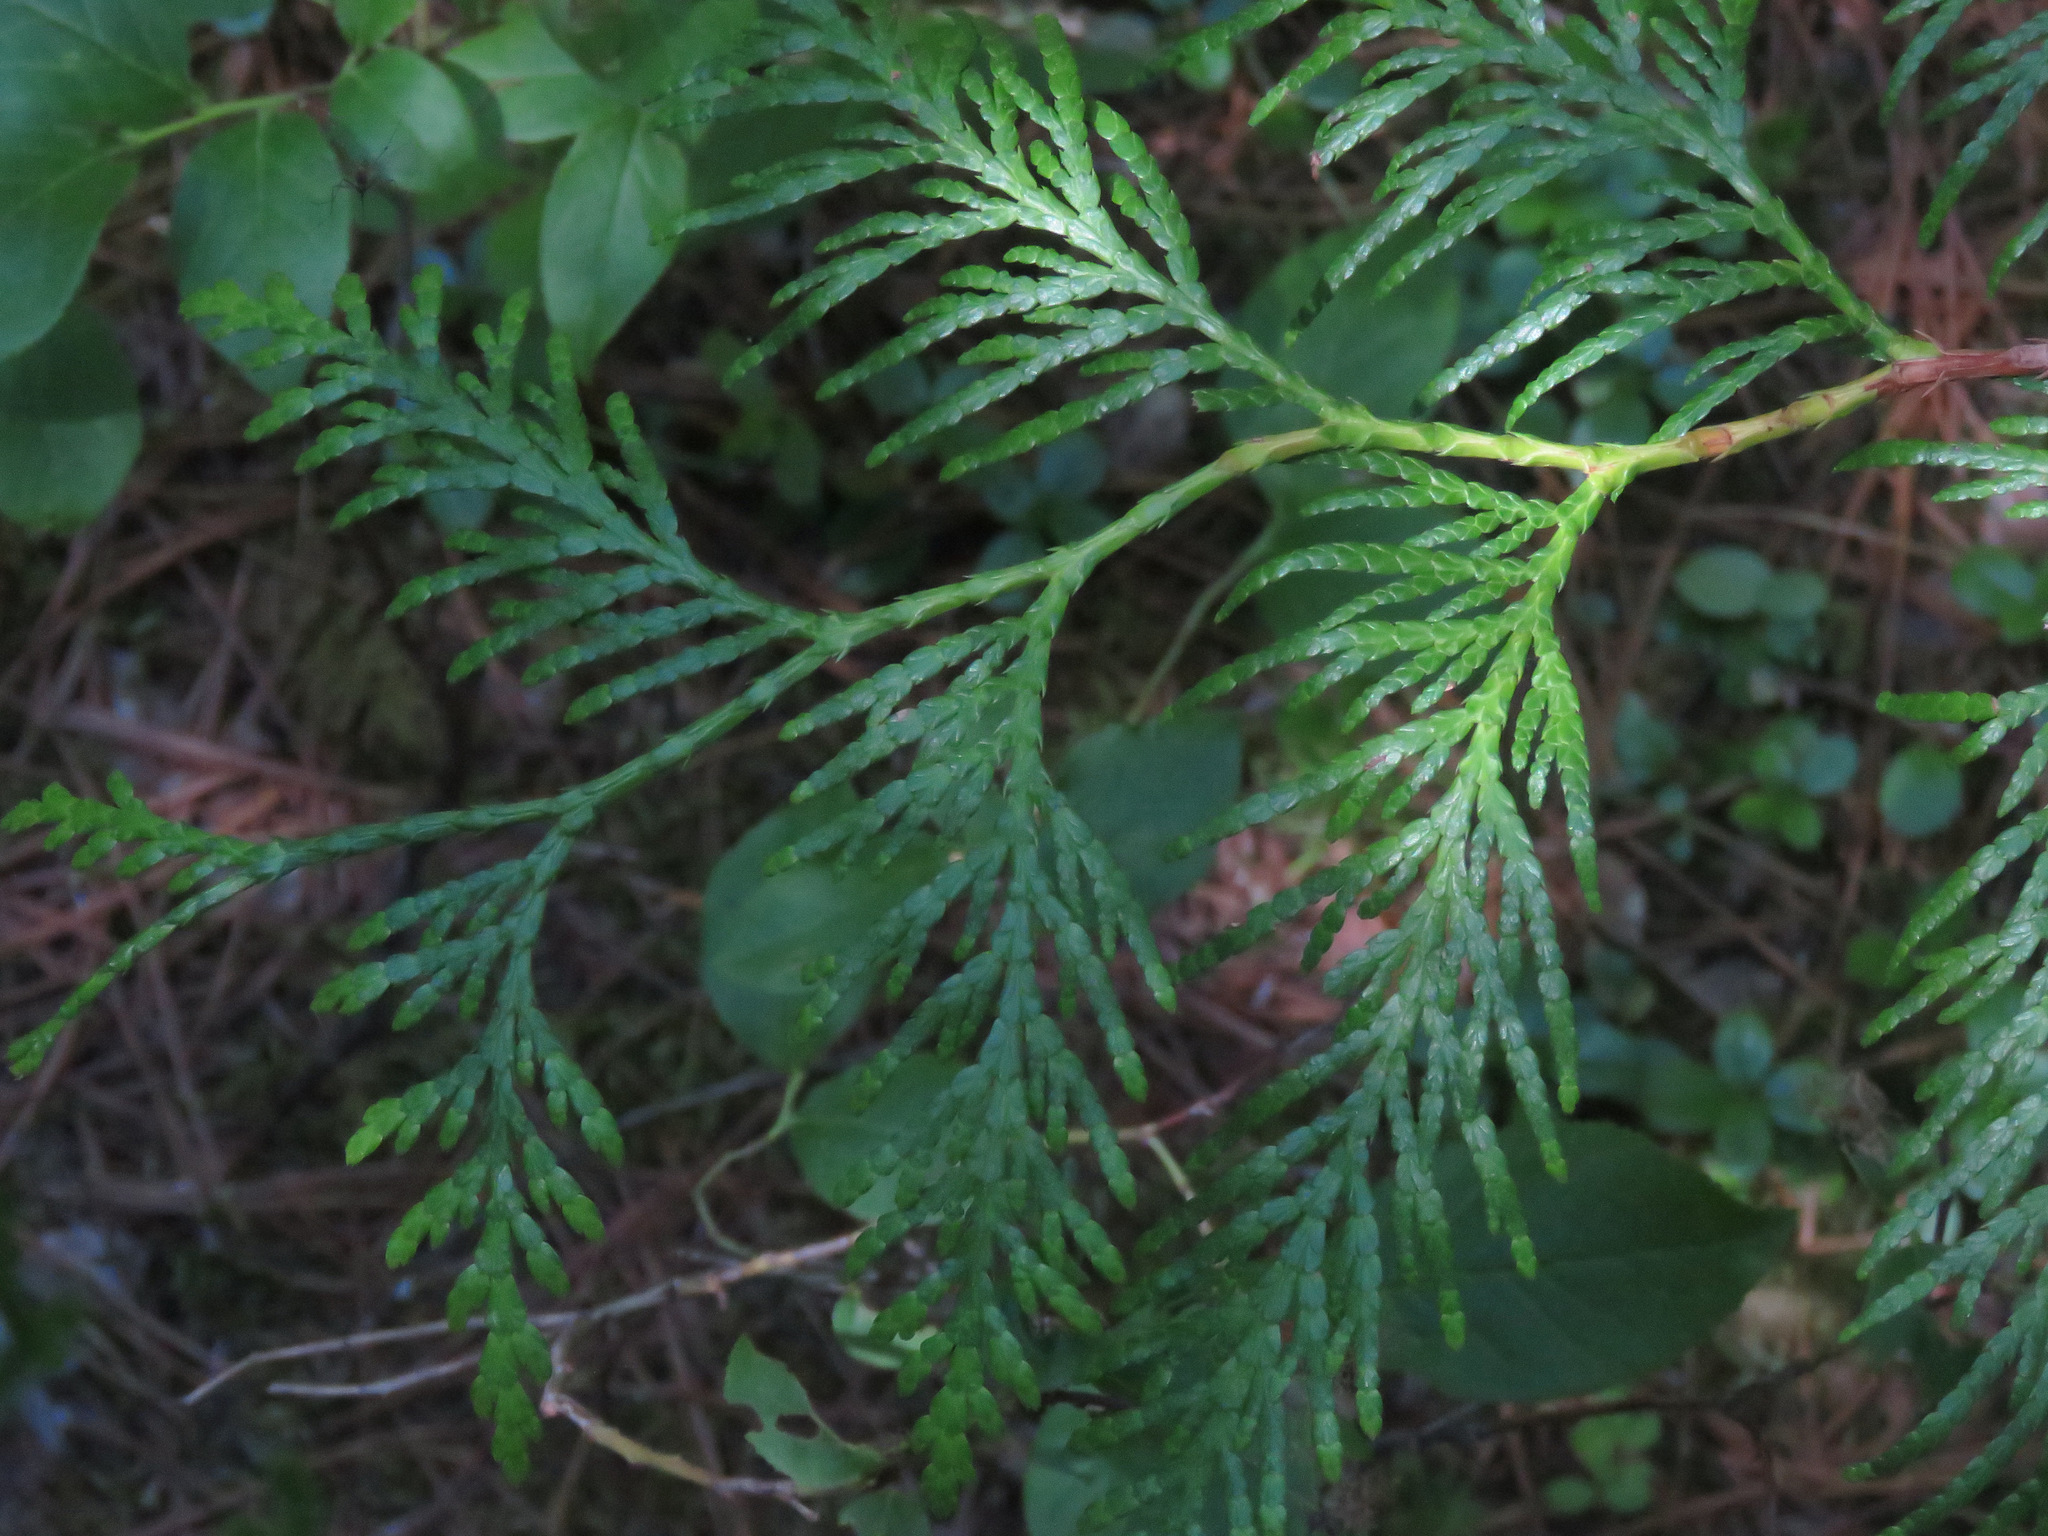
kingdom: Plantae
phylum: Tracheophyta
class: Pinopsida
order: Pinales
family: Cupressaceae
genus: Thuja
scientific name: Thuja plicata
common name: Western red-cedar
